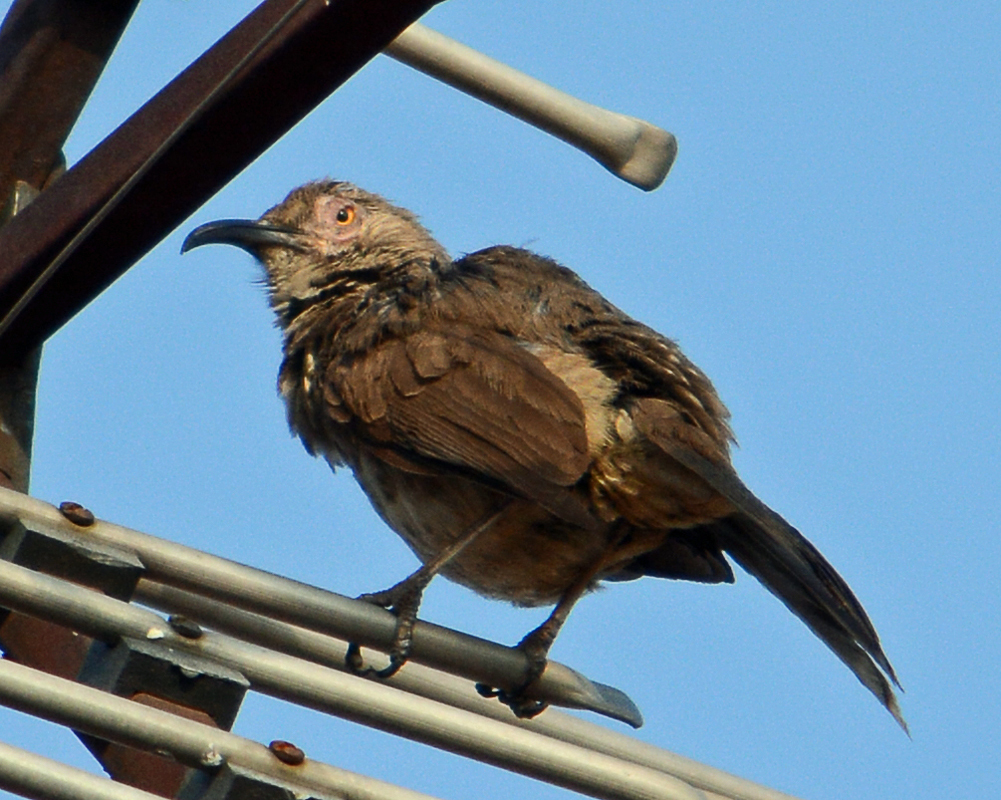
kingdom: Animalia
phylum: Chordata
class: Aves
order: Passeriformes
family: Mimidae
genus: Toxostoma
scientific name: Toxostoma curvirostre
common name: Curve-billed thrasher
